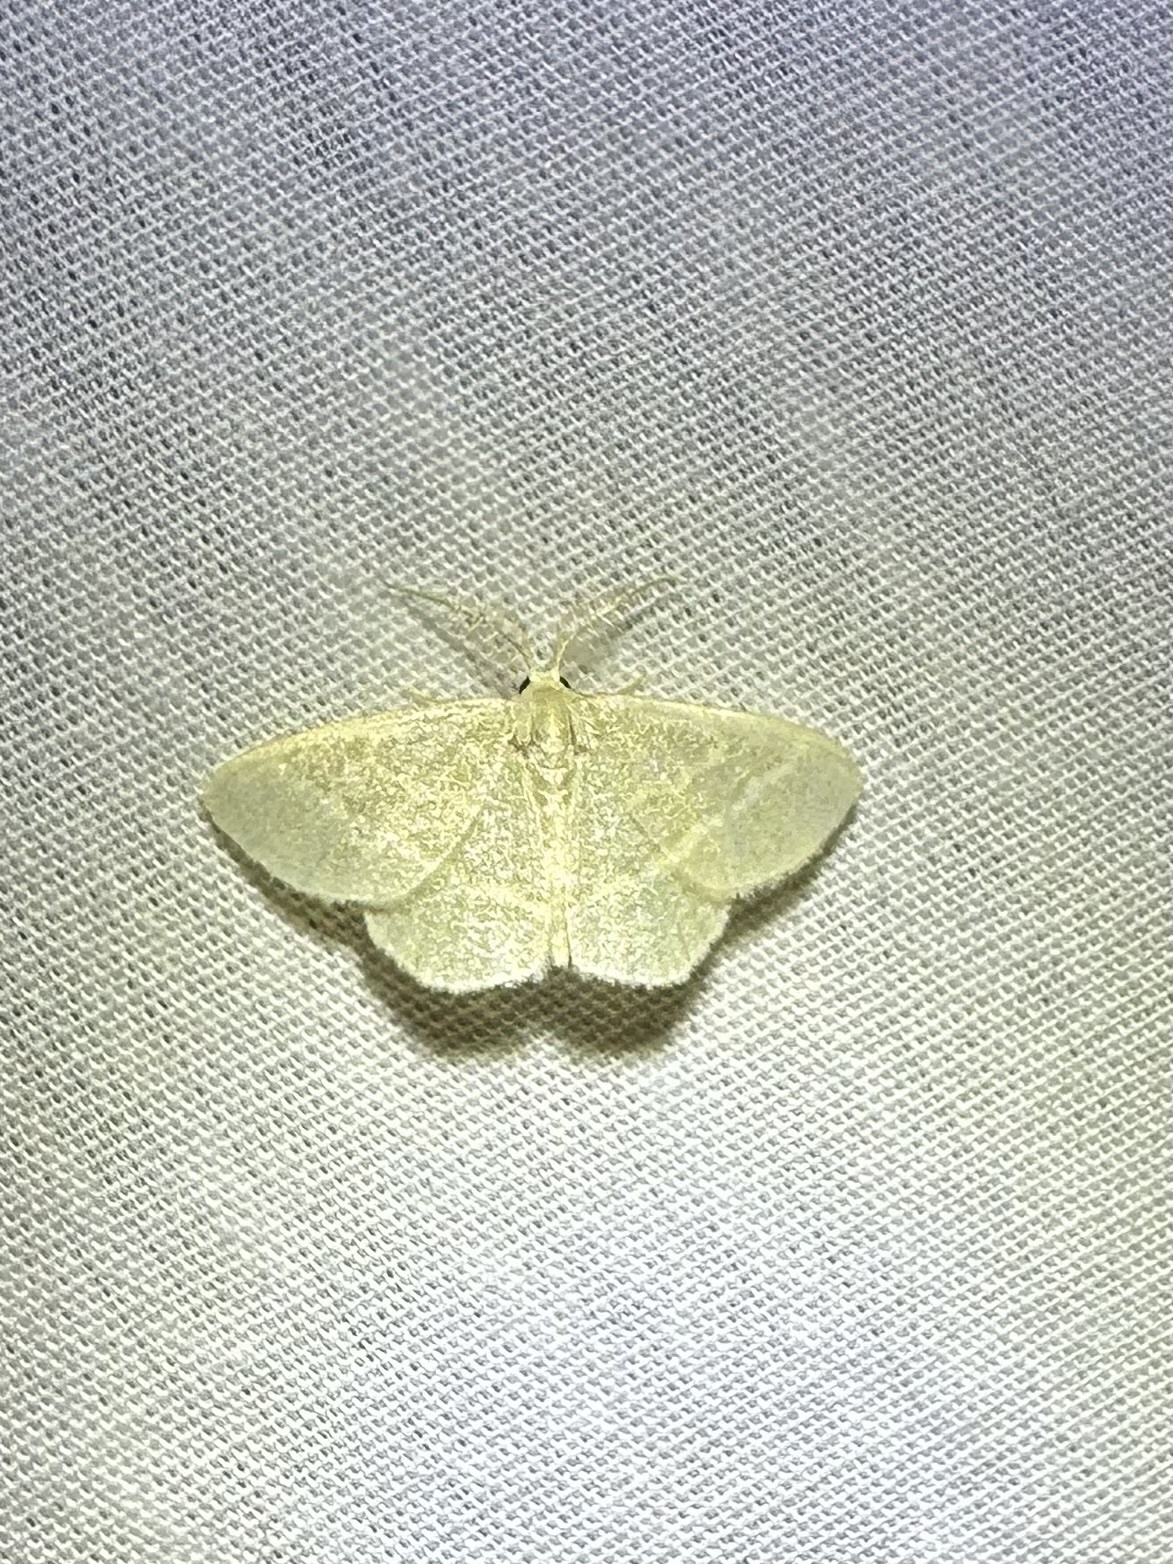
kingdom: Animalia
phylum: Arthropoda
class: Insecta
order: Lepidoptera
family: Geometridae
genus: Chlorochlamys
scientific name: Chlorochlamys chloroleucaria
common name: Blackberry looper
